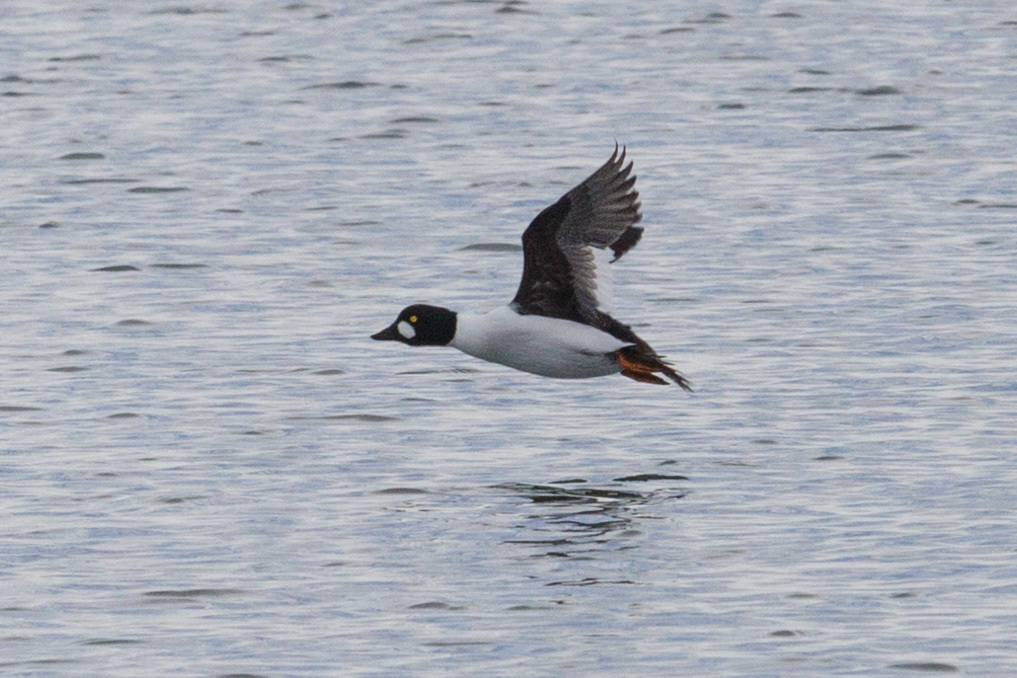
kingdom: Animalia
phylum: Chordata
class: Aves
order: Anseriformes
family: Anatidae
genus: Bucephala
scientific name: Bucephala clangula
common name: Common goldeneye
